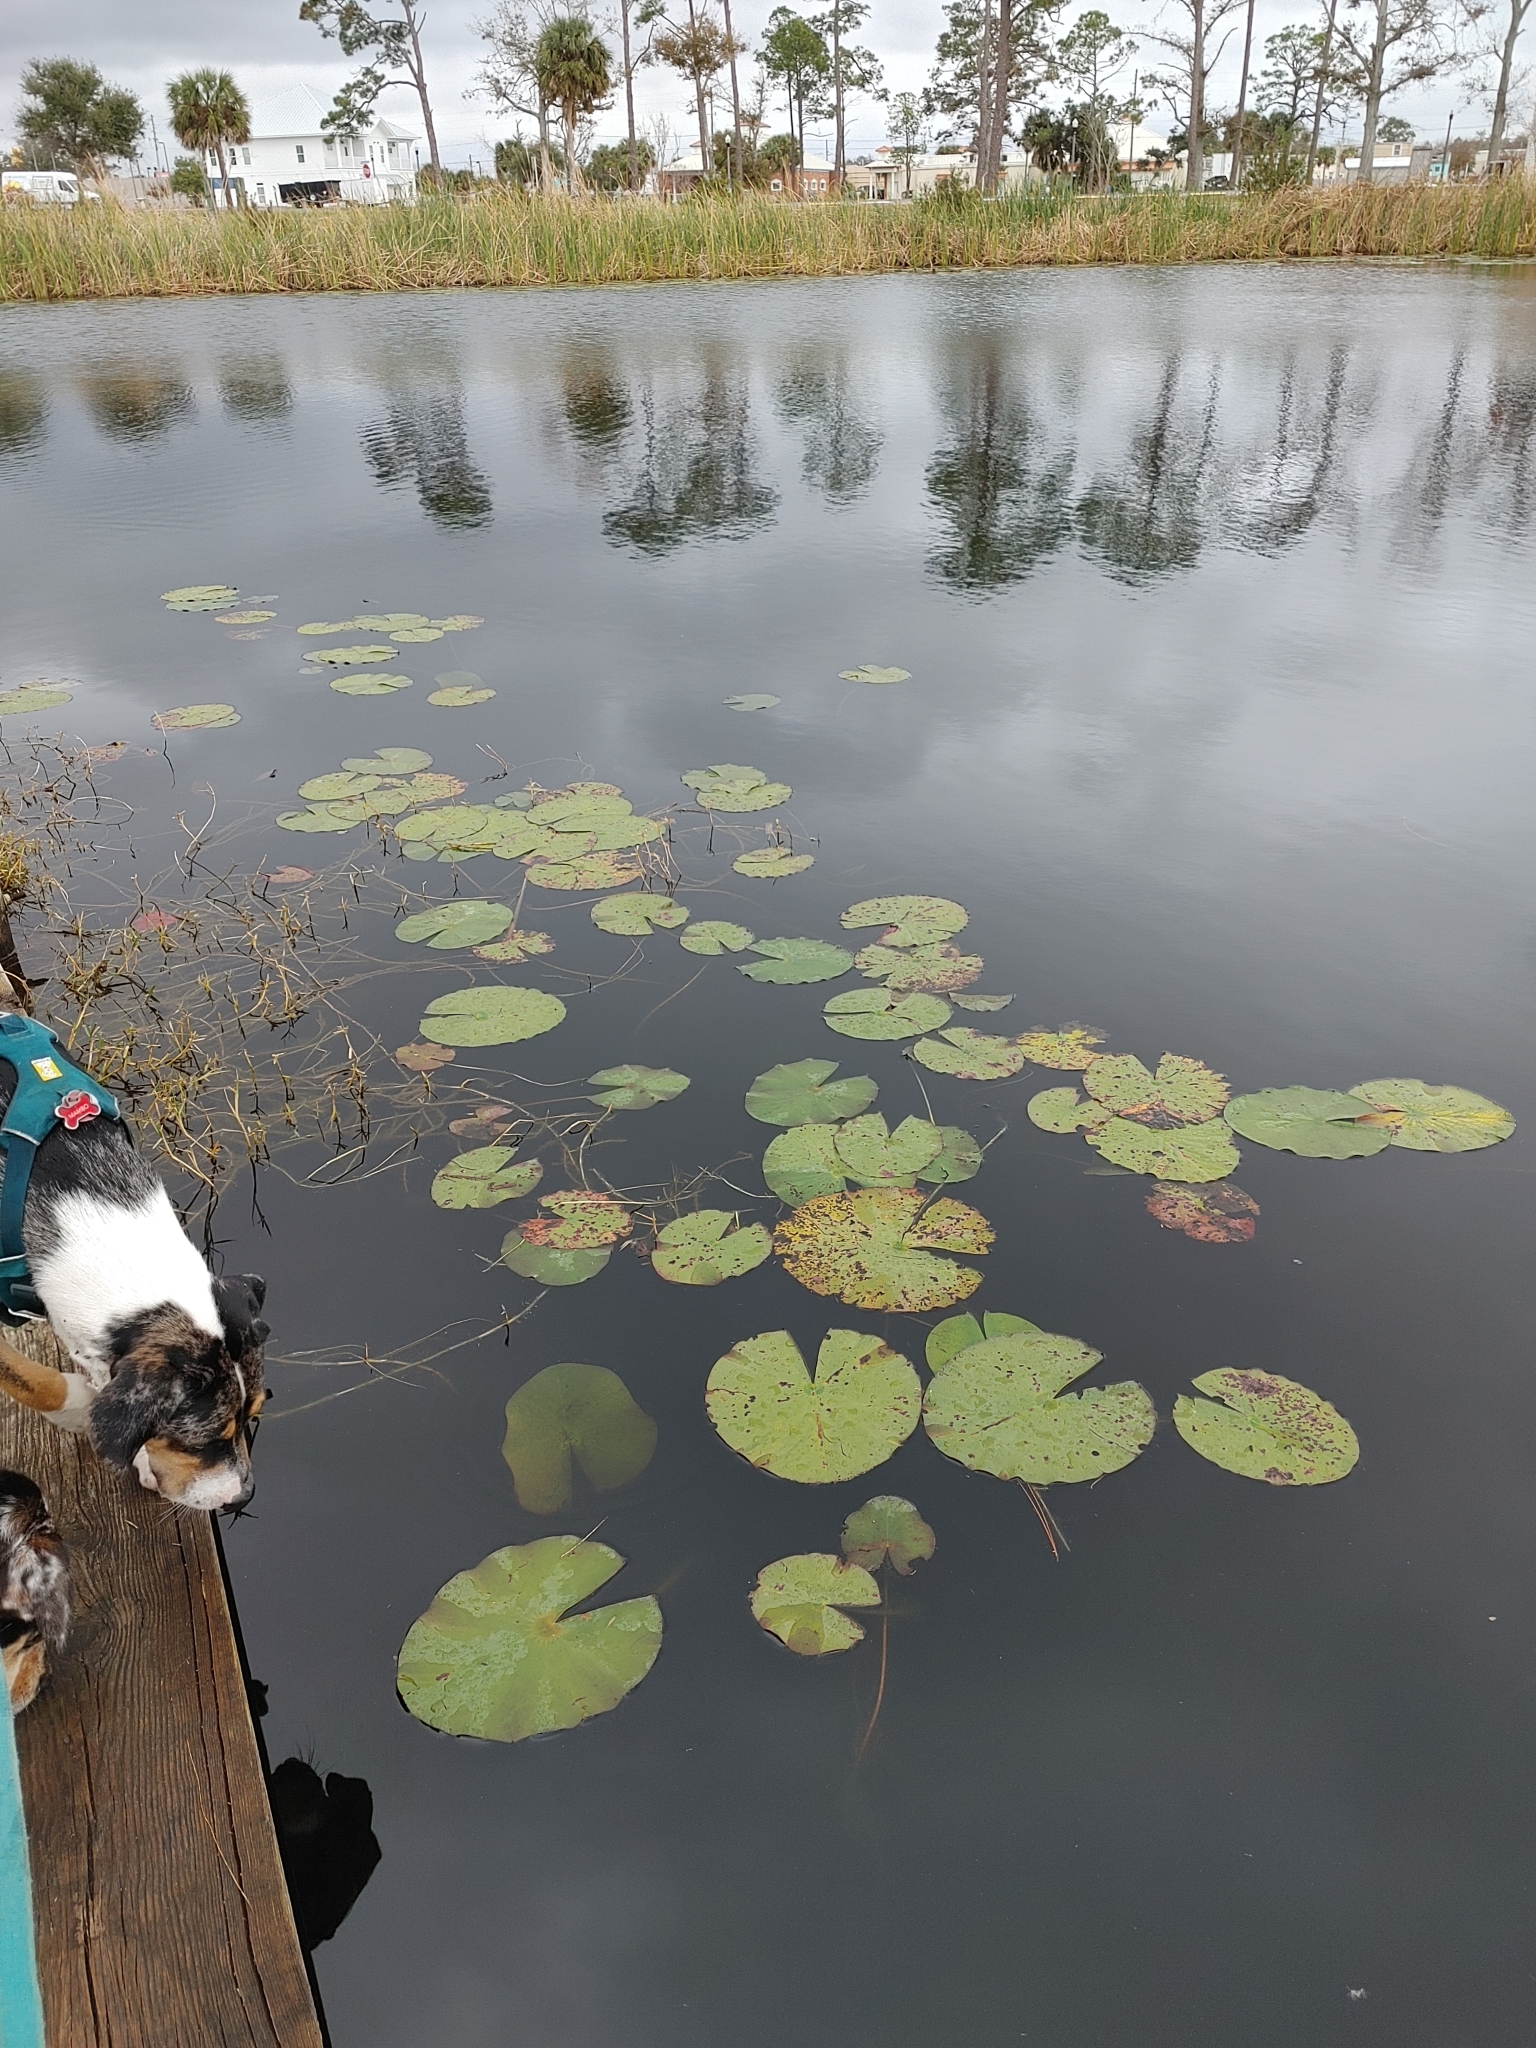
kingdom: Plantae
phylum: Tracheophyta
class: Magnoliopsida
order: Nymphaeales
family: Nymphaeaceae
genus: Nymphaea
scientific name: Nymphaea odorata
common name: Fragrant water-lily
